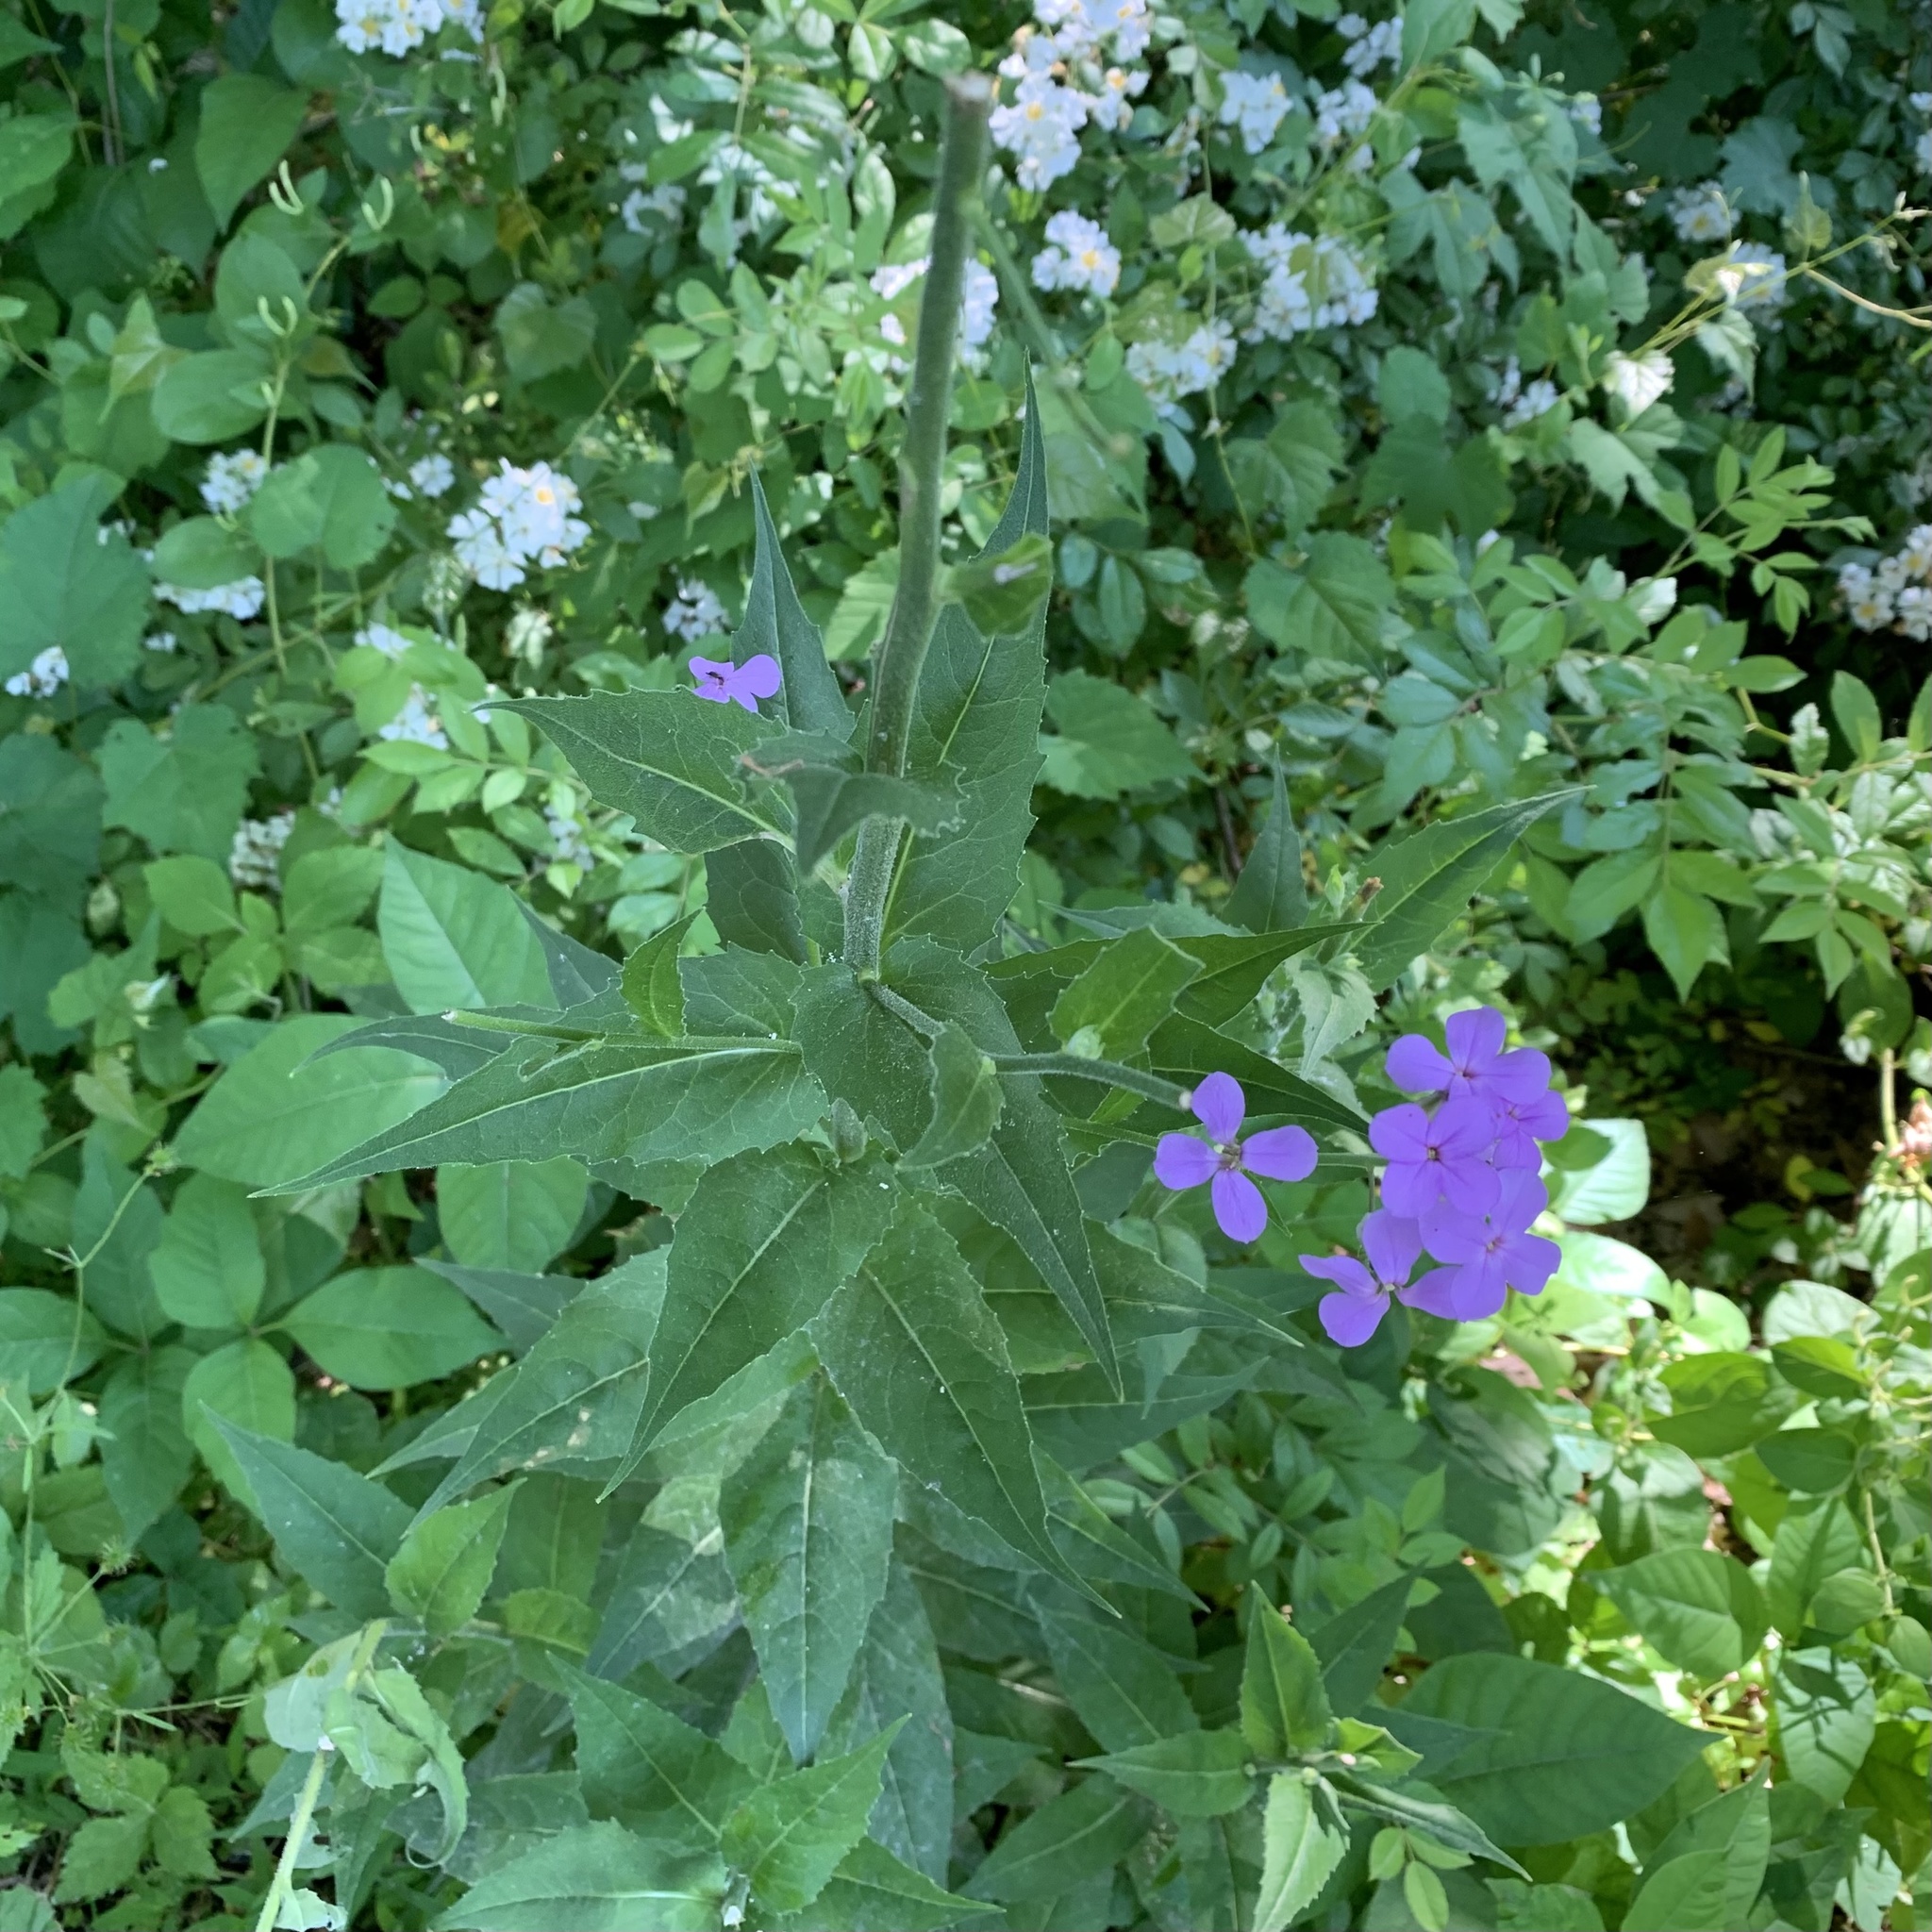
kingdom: Plantae
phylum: Tracheophyta
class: Magnoliopsida
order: Brassicales
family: Brassicaceae
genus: Hesperis
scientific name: Hesperis matronalis
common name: Dame's-violet
